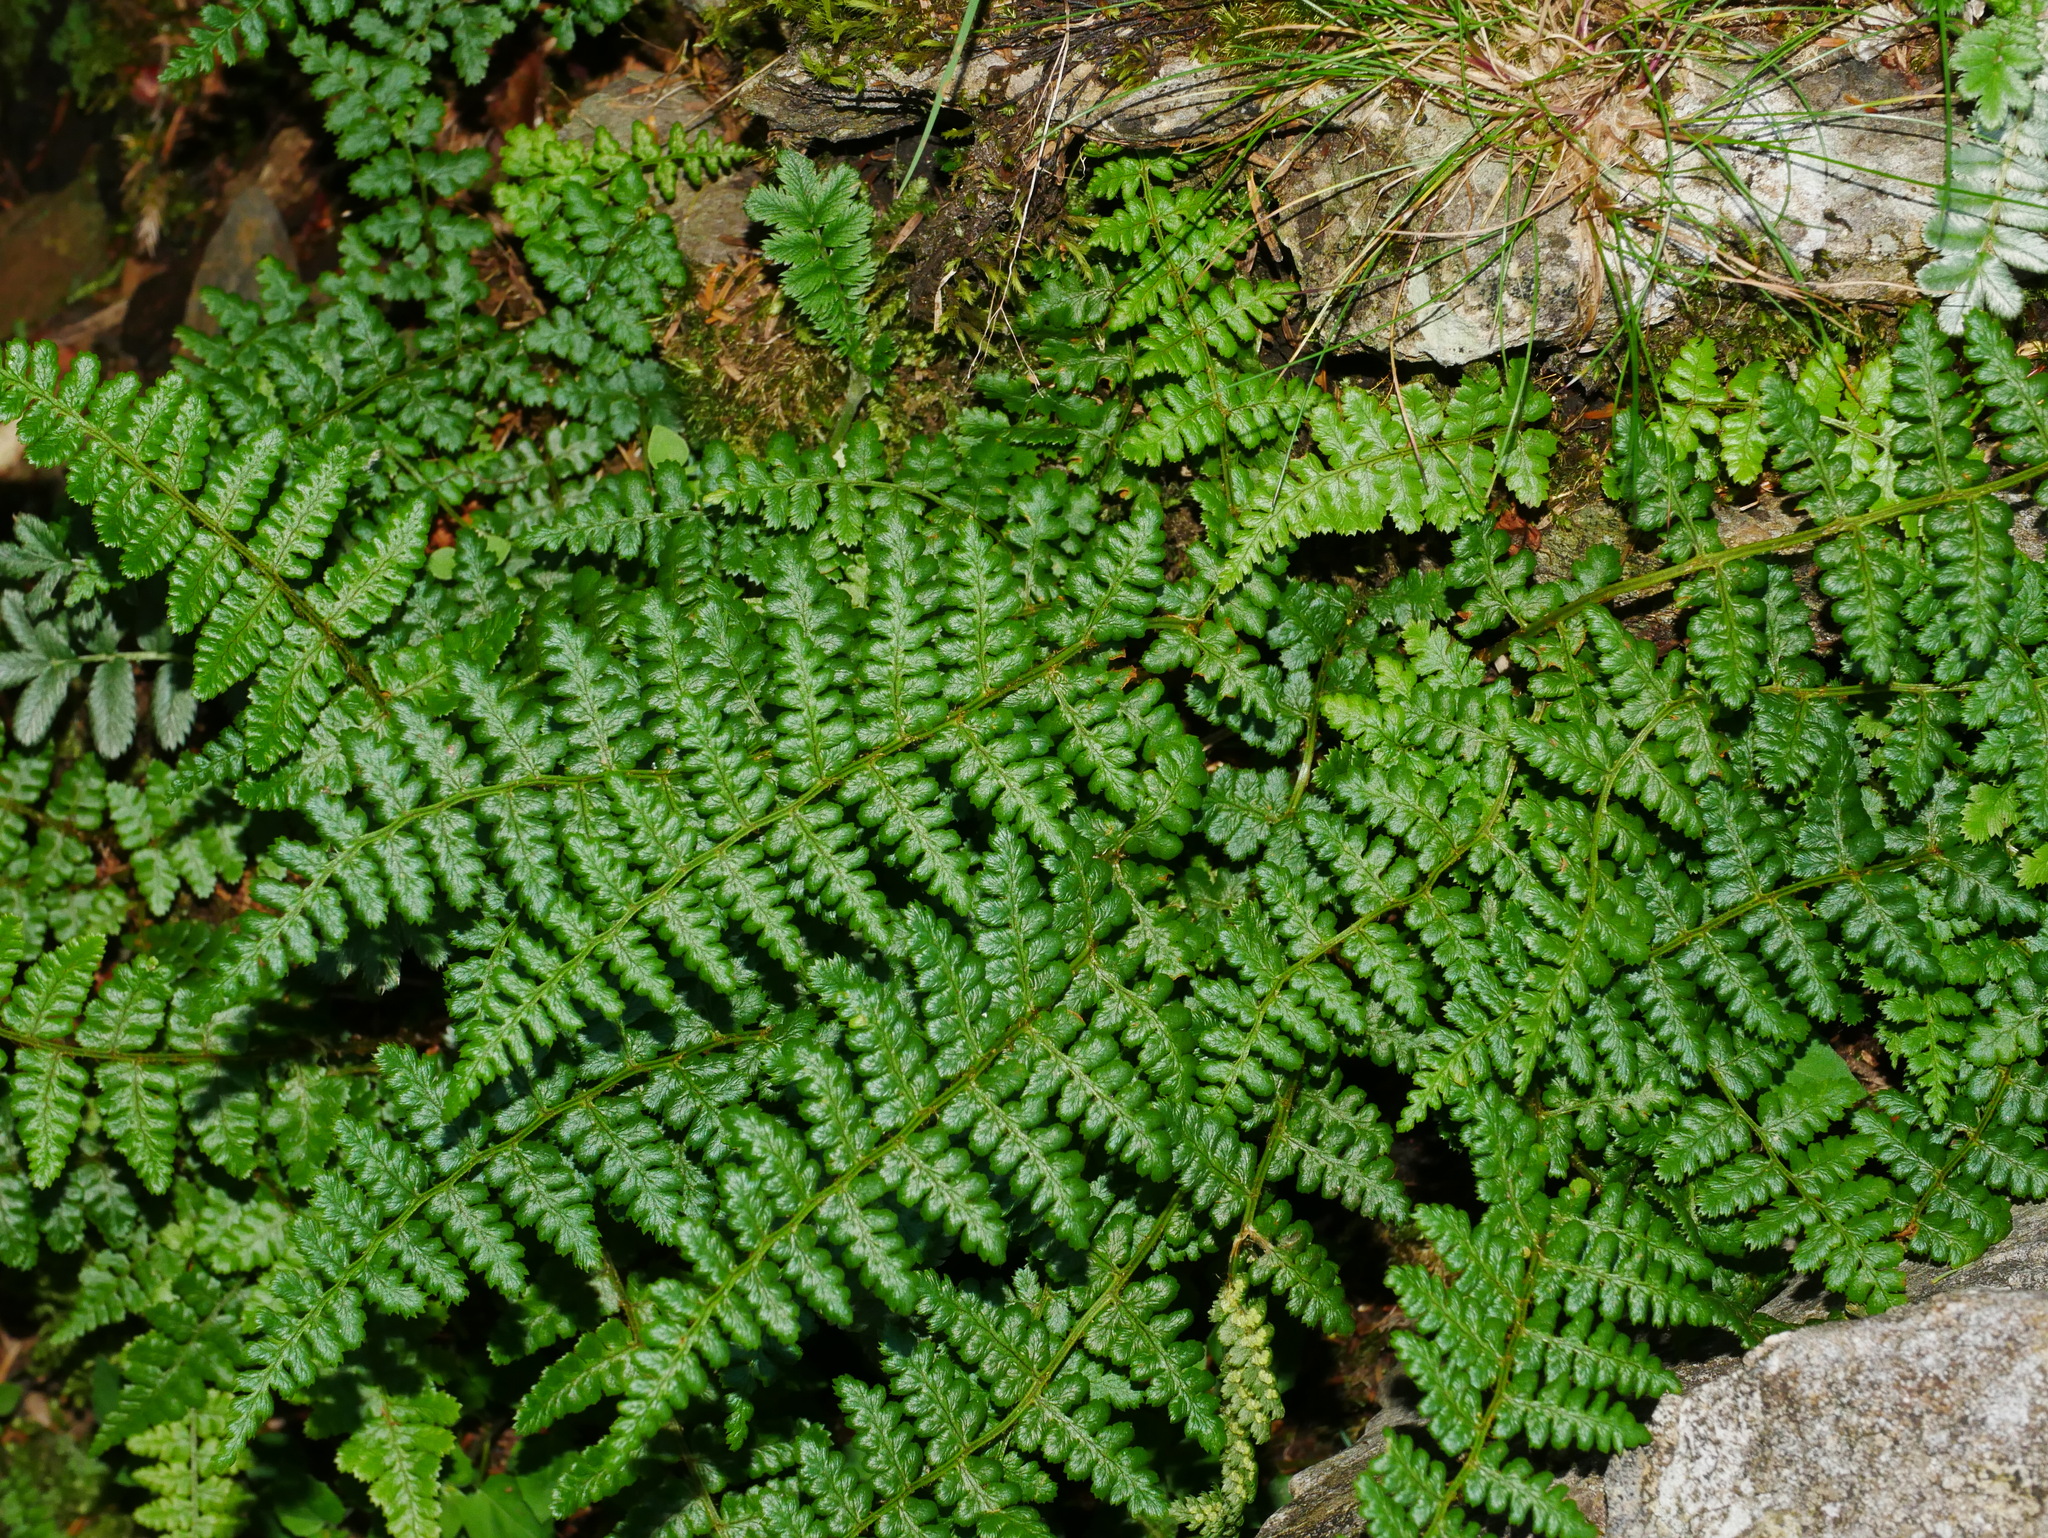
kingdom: Plantae
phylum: Tracheophyta
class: Polypodiopsida
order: Polypodiales
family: Dryopteridaceae
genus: Dryopteris
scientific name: Dryopteris serratodentata
